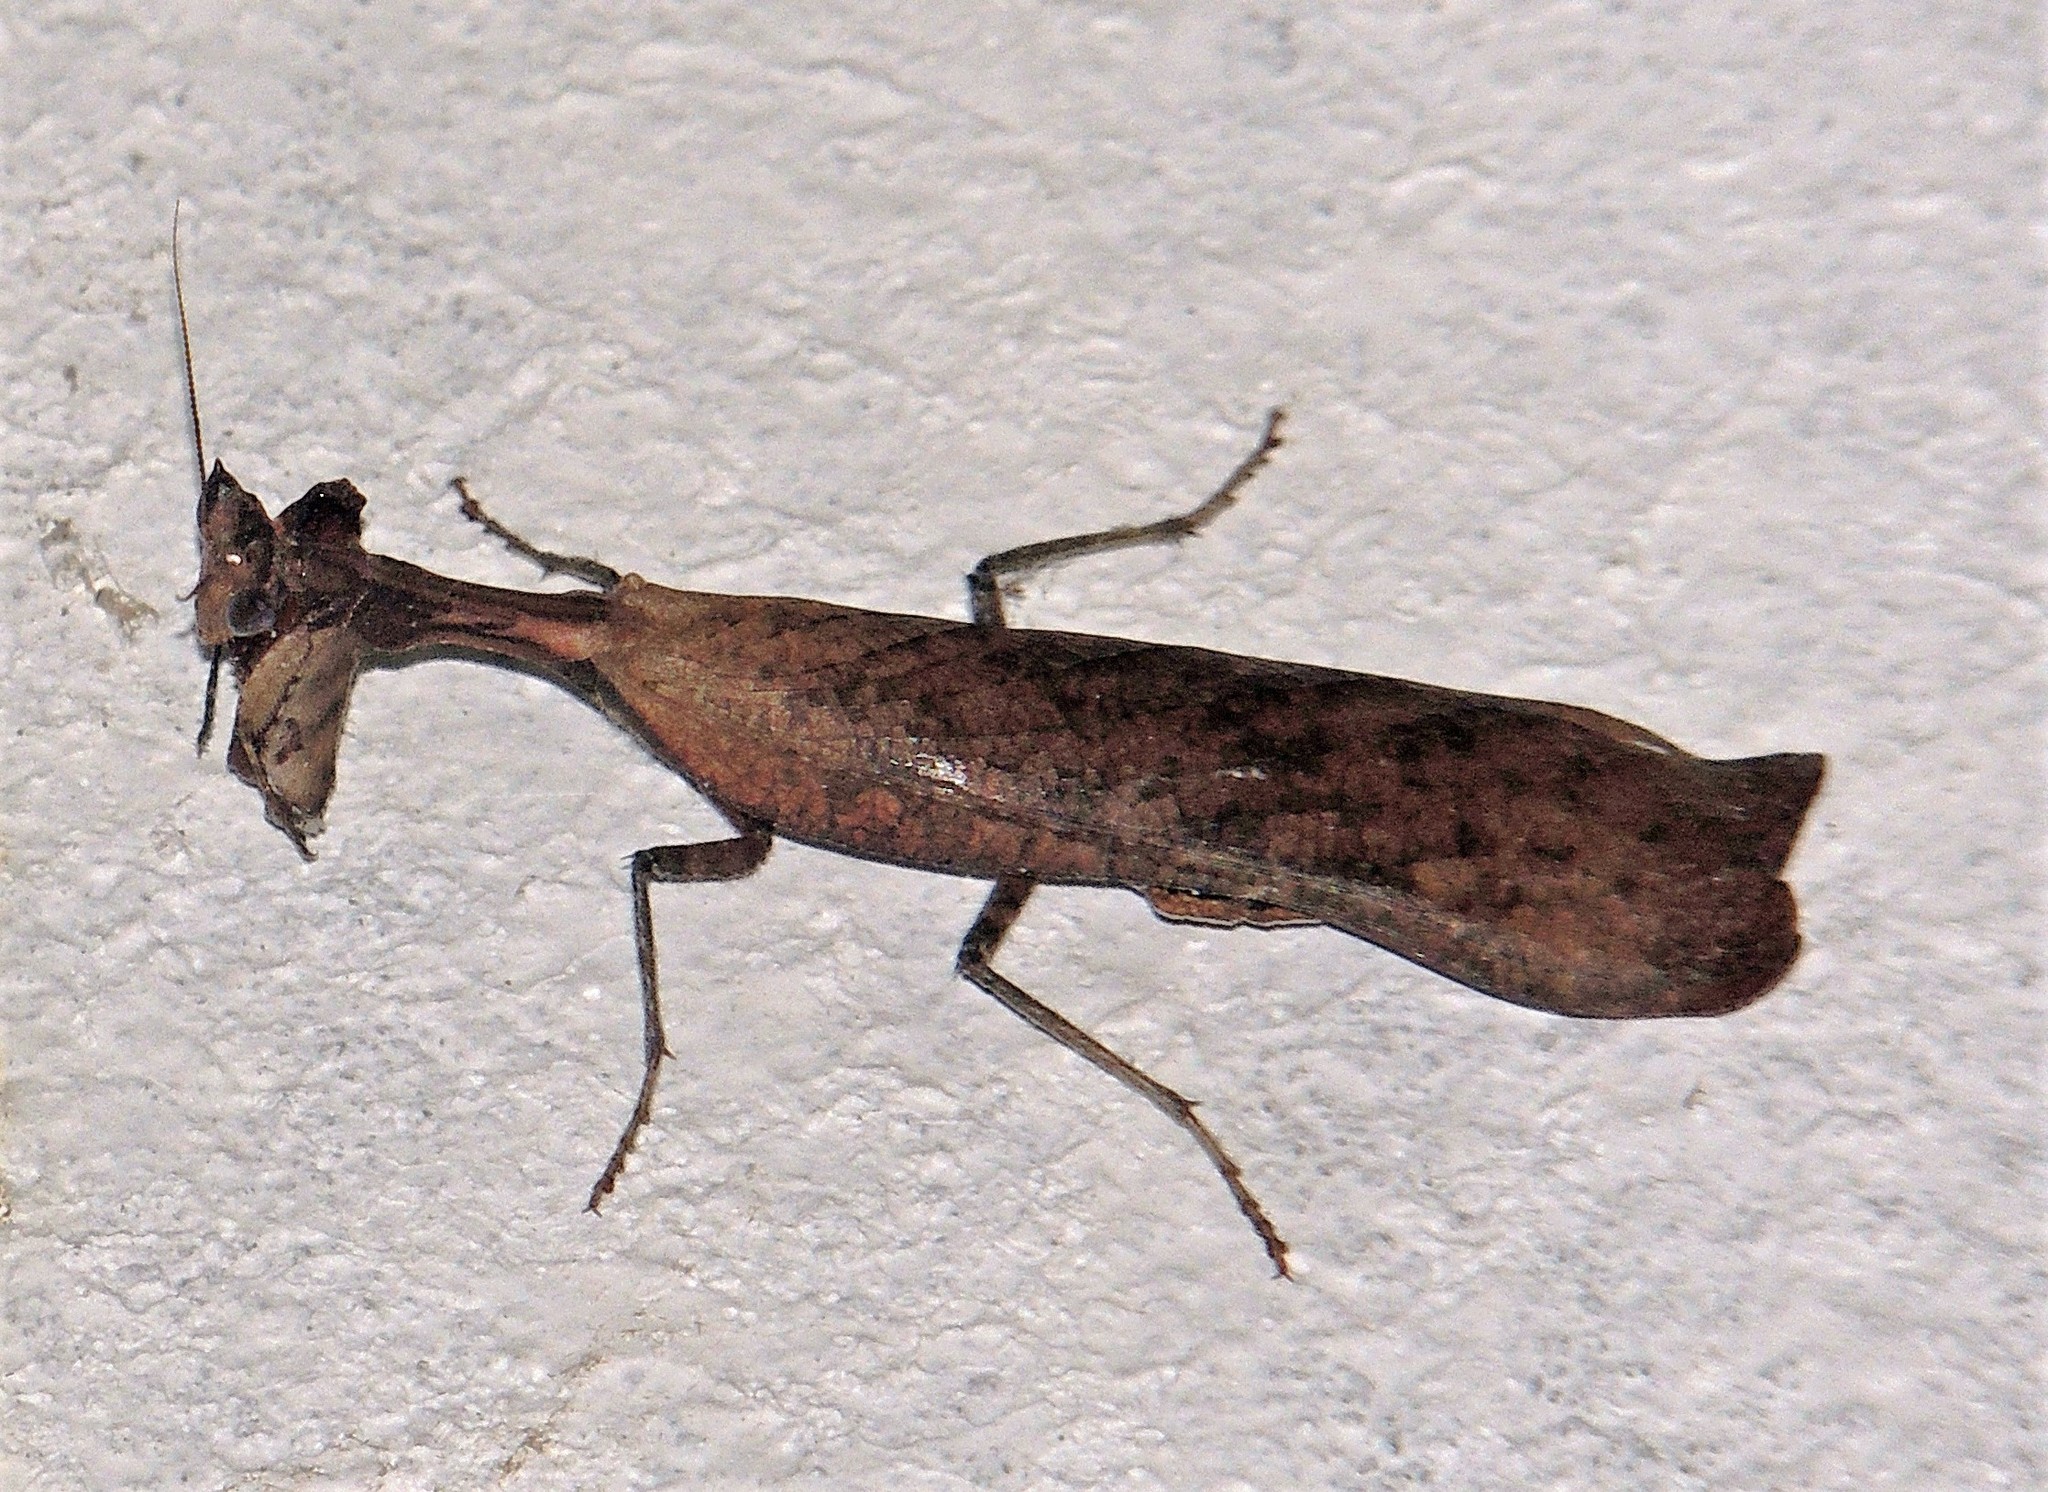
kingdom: Animalia
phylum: Arthropoda
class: Insecta
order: Mantodea
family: Acanthopidae
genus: Decimiana
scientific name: Decimiana rehni
